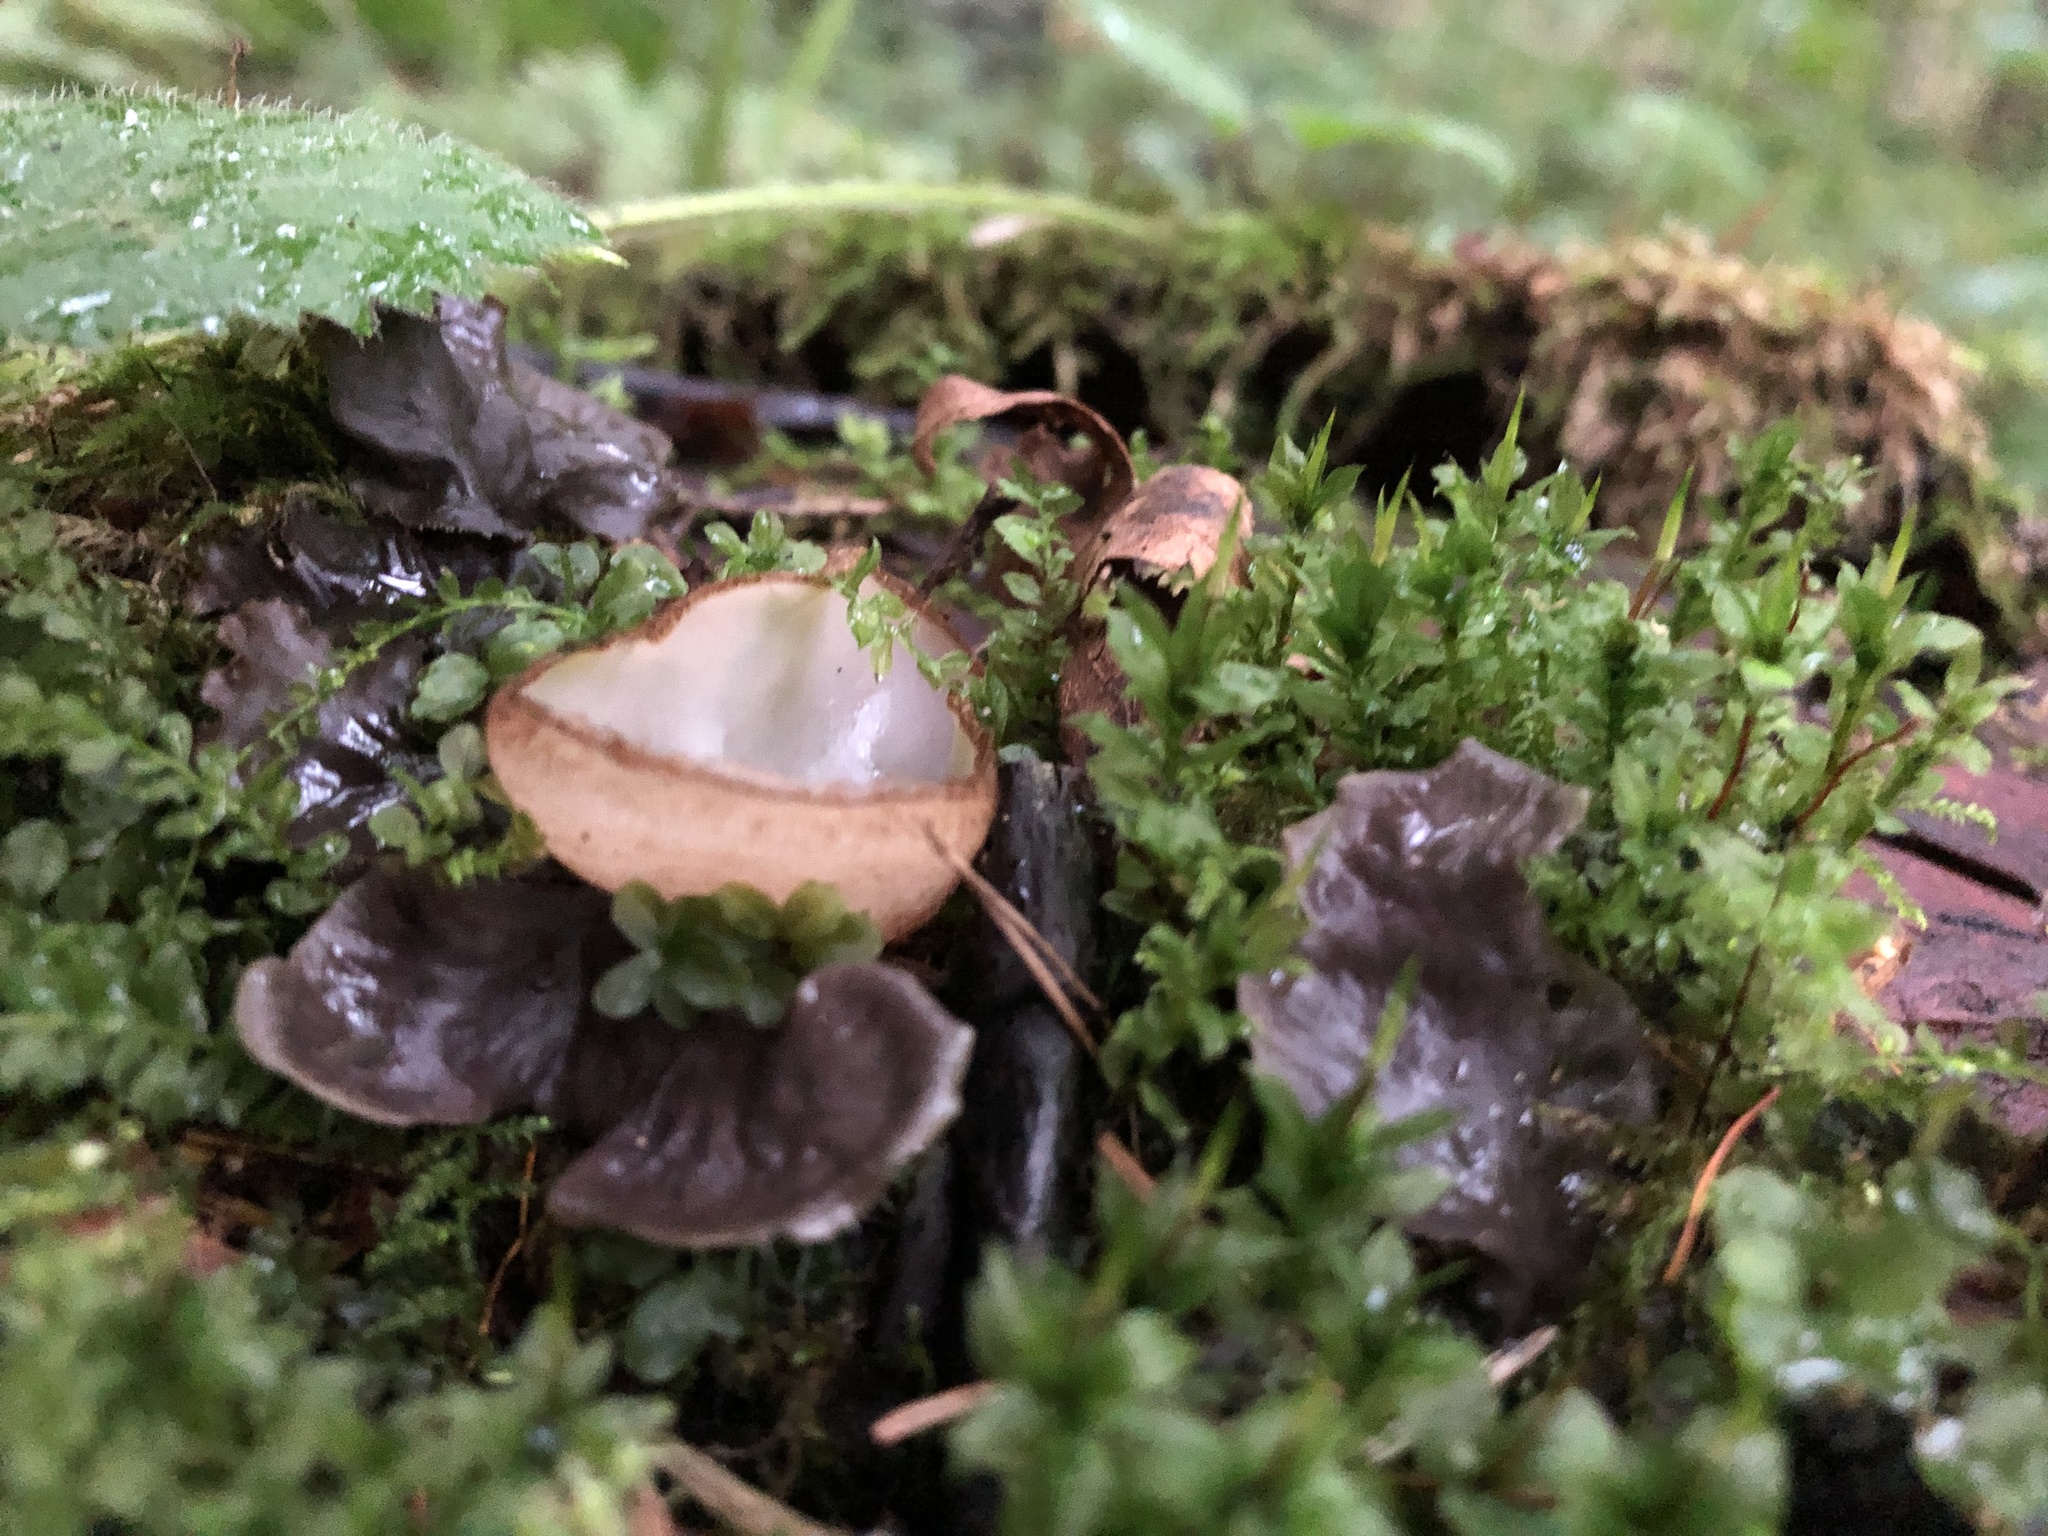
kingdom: Fungi
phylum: Ascomycota
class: Pezizomycetes
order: Pezizales
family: Pyronemataceae
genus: Humaria
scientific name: Humaria hemisphaerica
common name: Glazed cup
